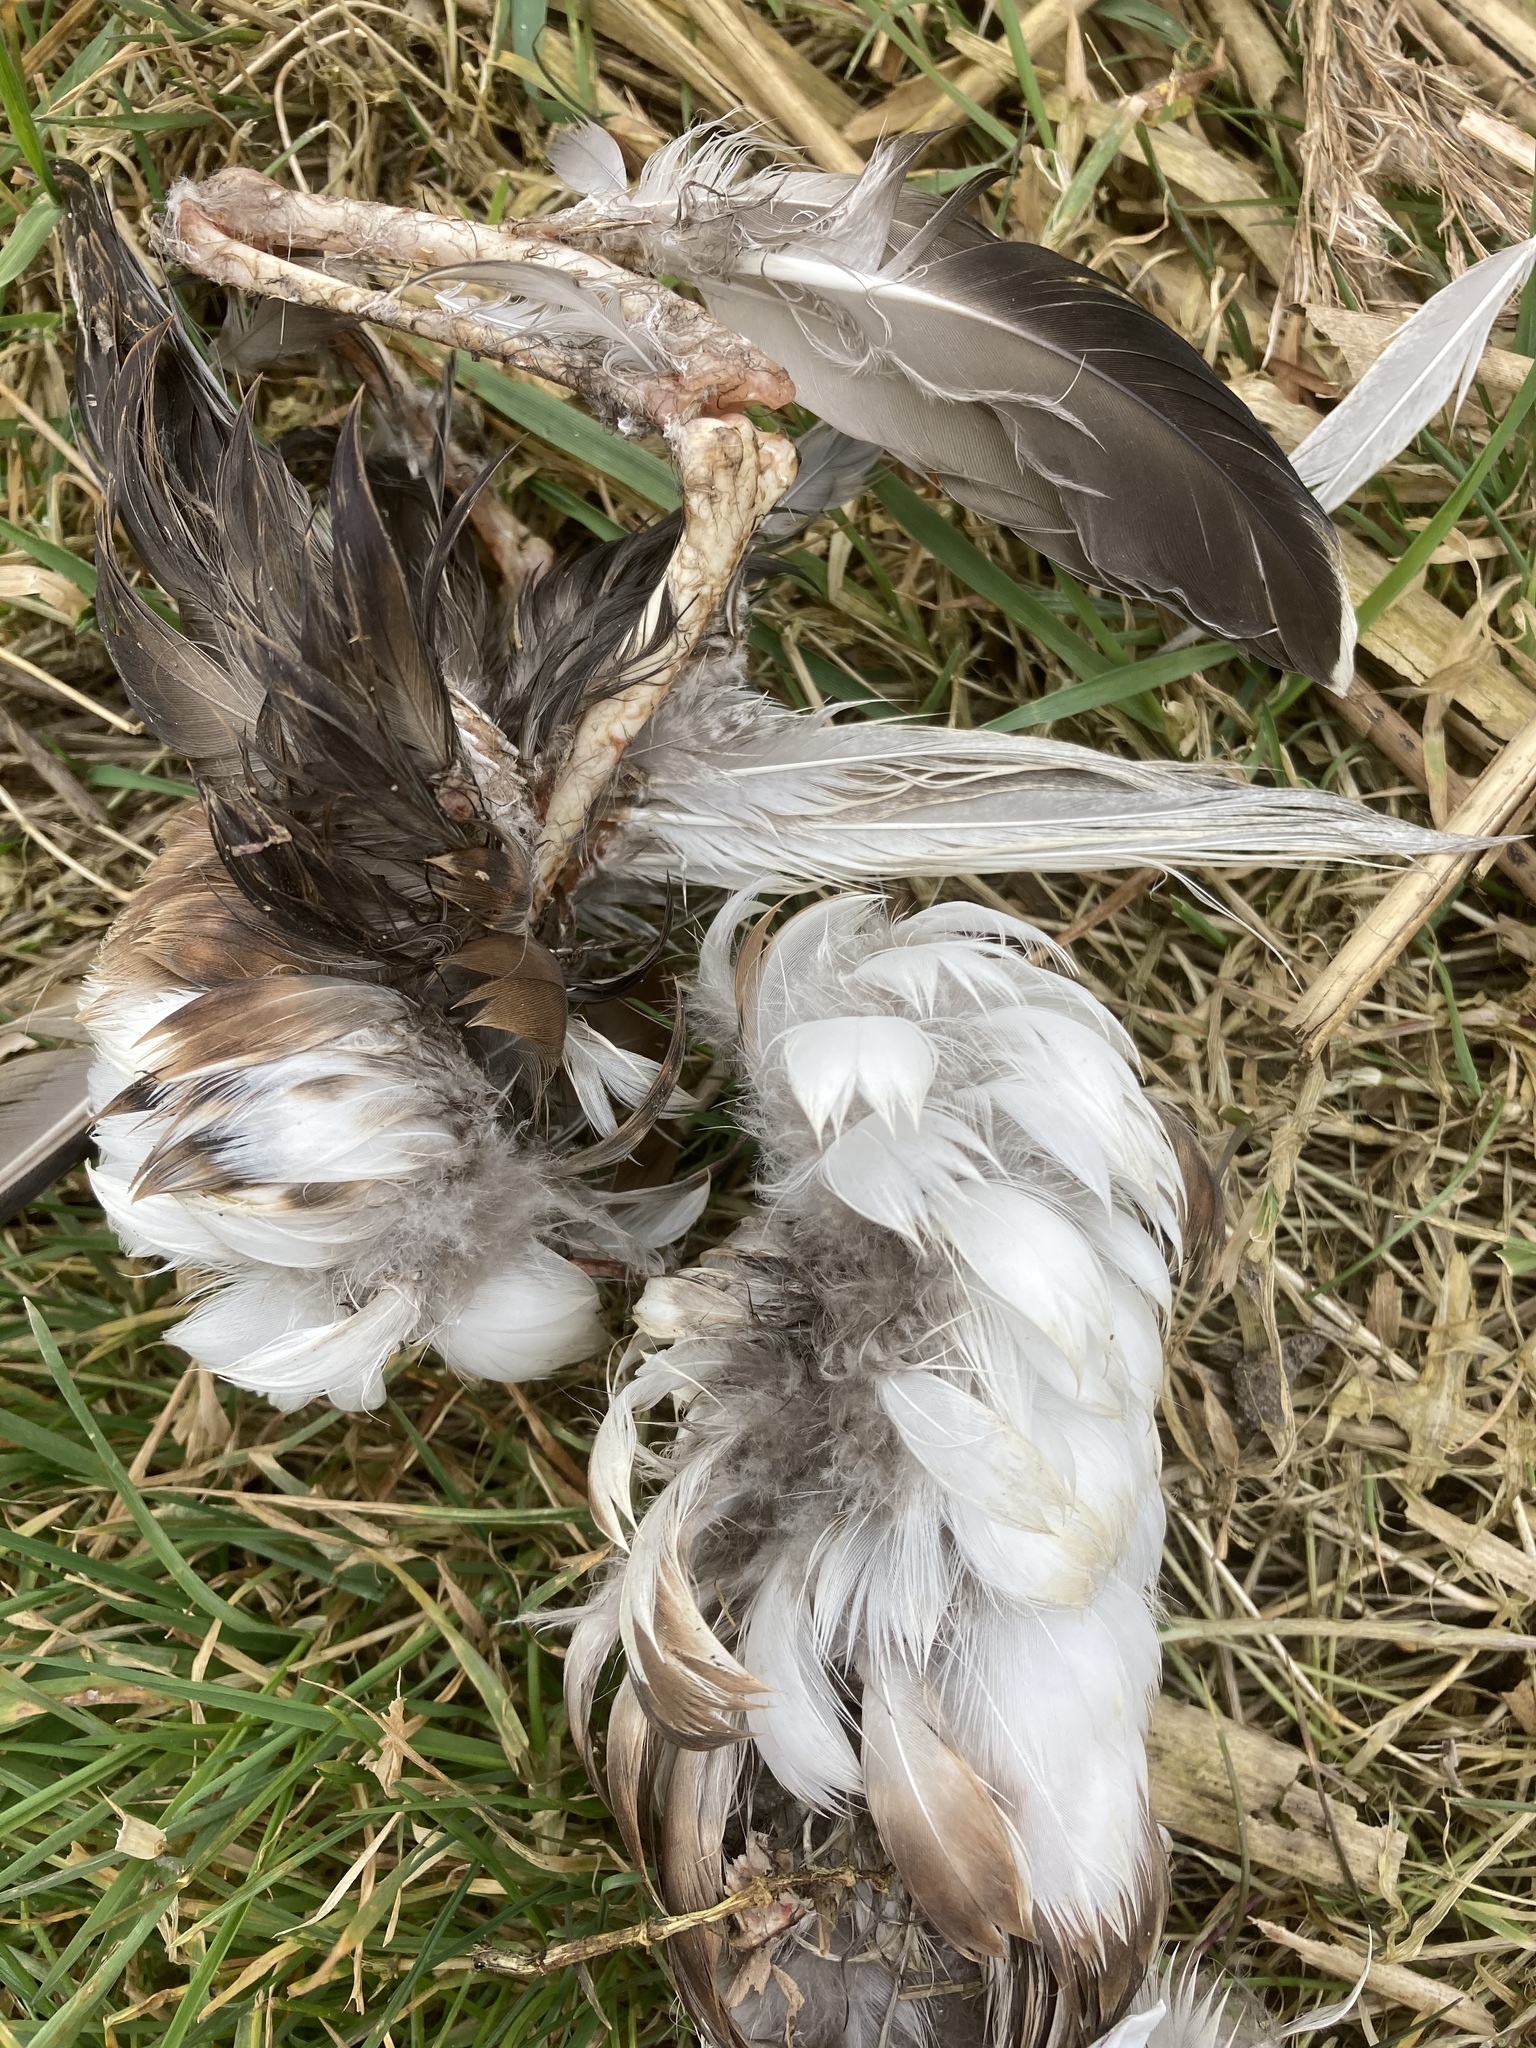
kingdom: Animalia
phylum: Chordata
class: Aves
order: Anseriformes
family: Anatidae
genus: Spatula
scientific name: Spatula clypeata
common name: Northern shoveler
